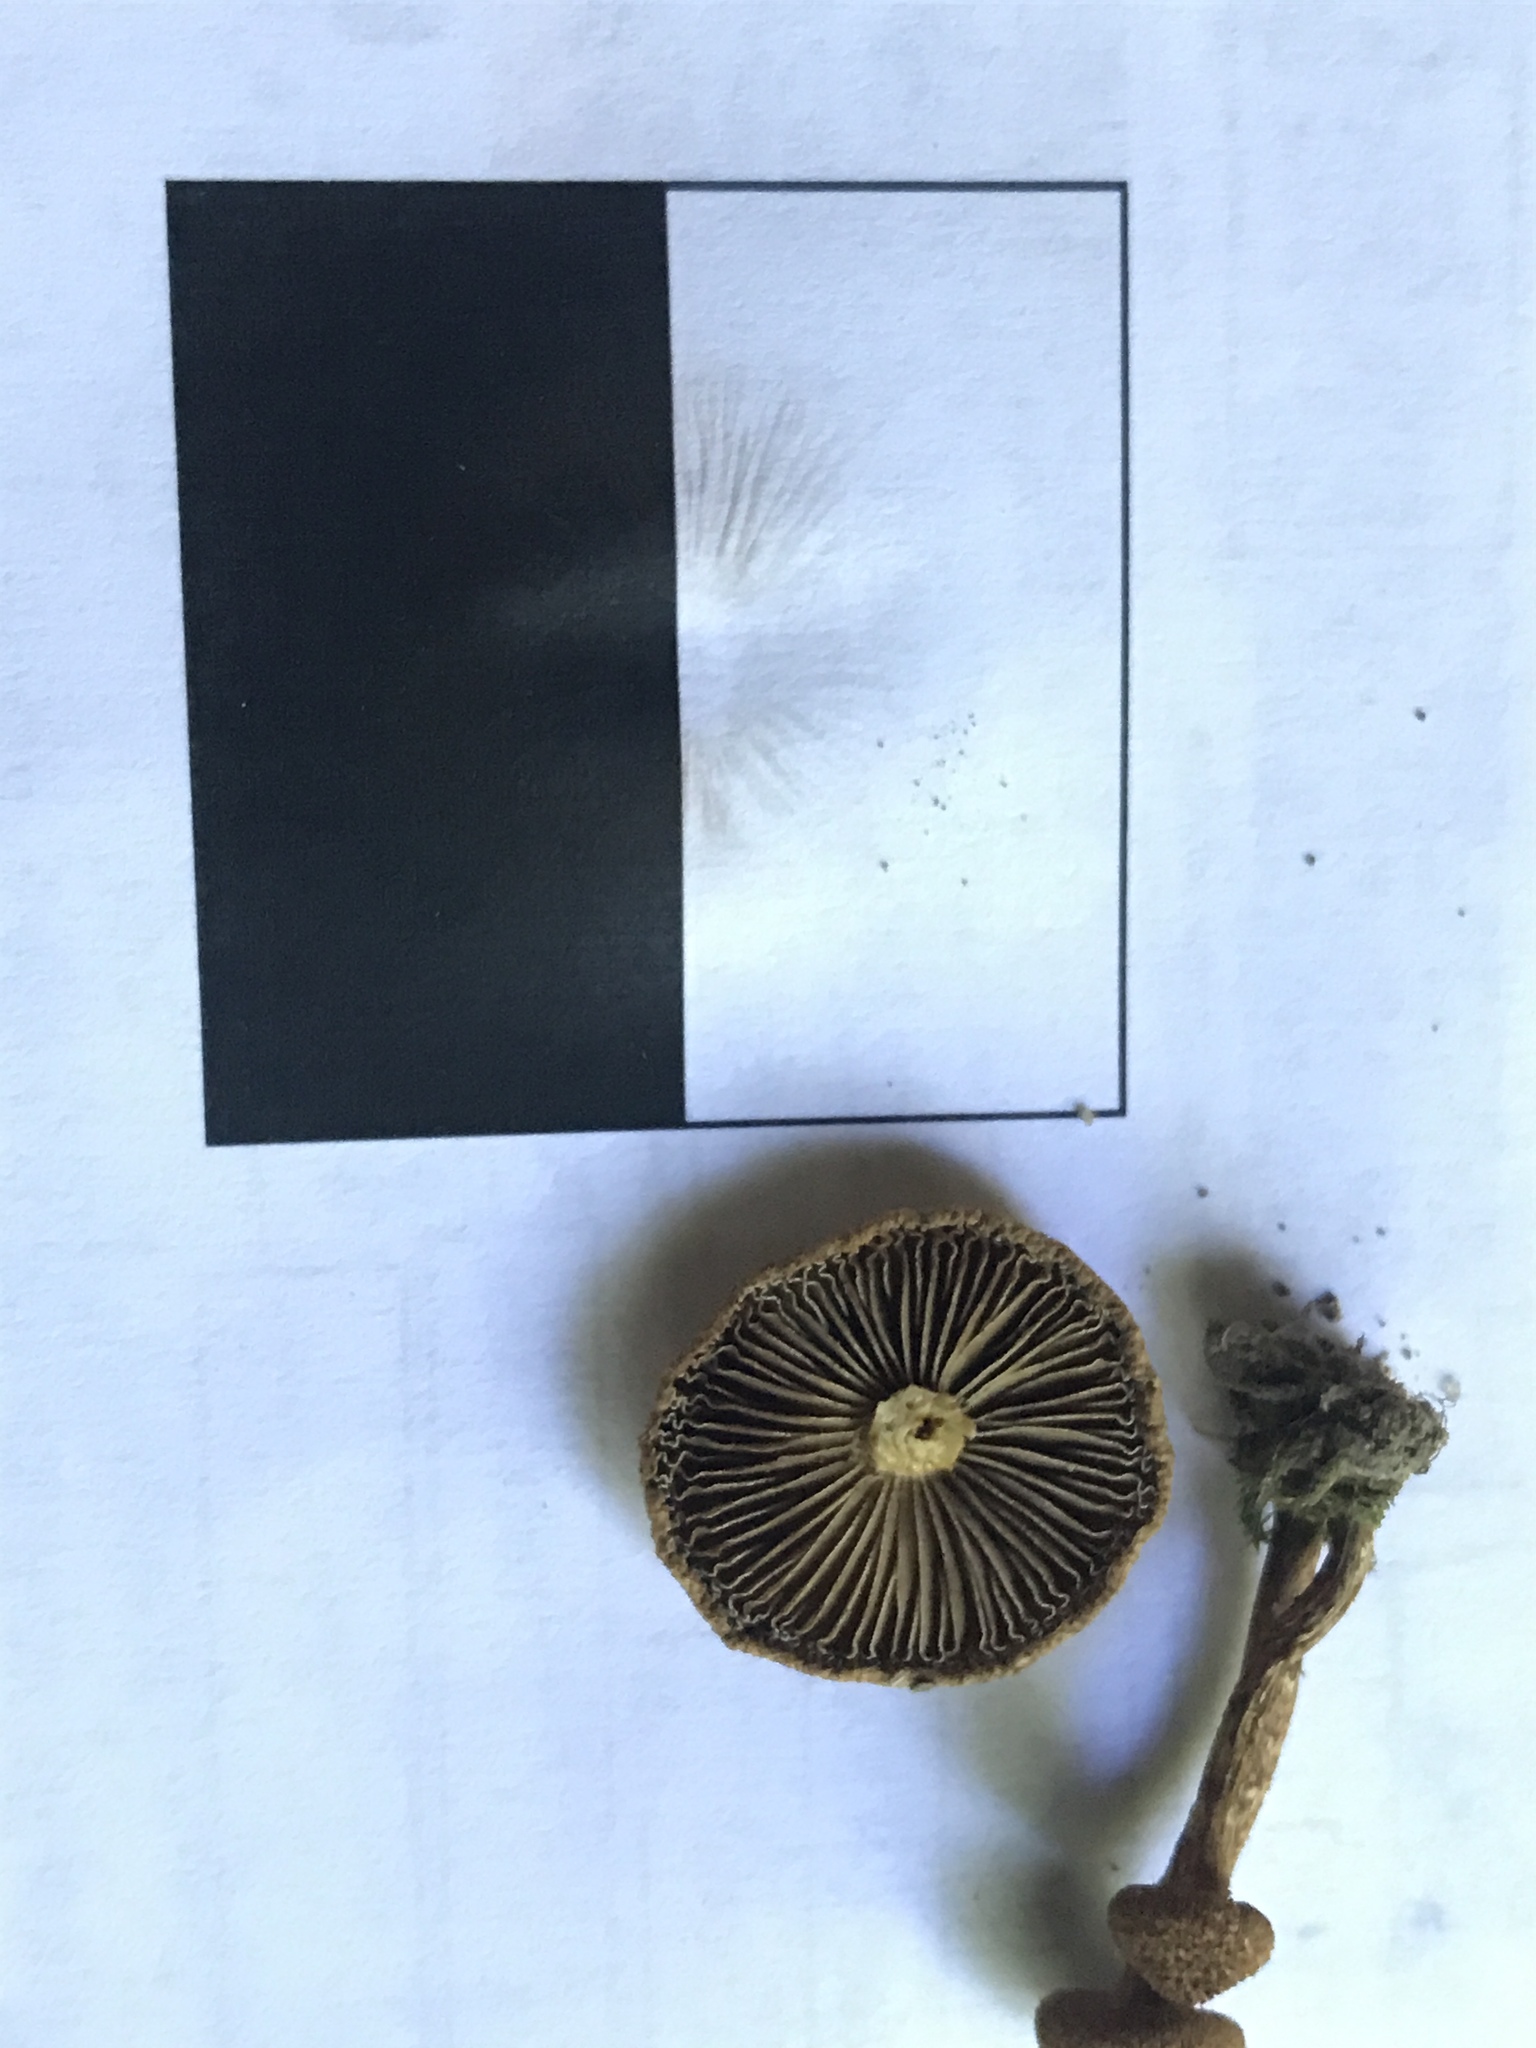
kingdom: Fungi
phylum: Basidiomycota
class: Agaricomycetes
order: Agaricales
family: Inocybaceae
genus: Mallocybe
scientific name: Mallocybe unicolor
